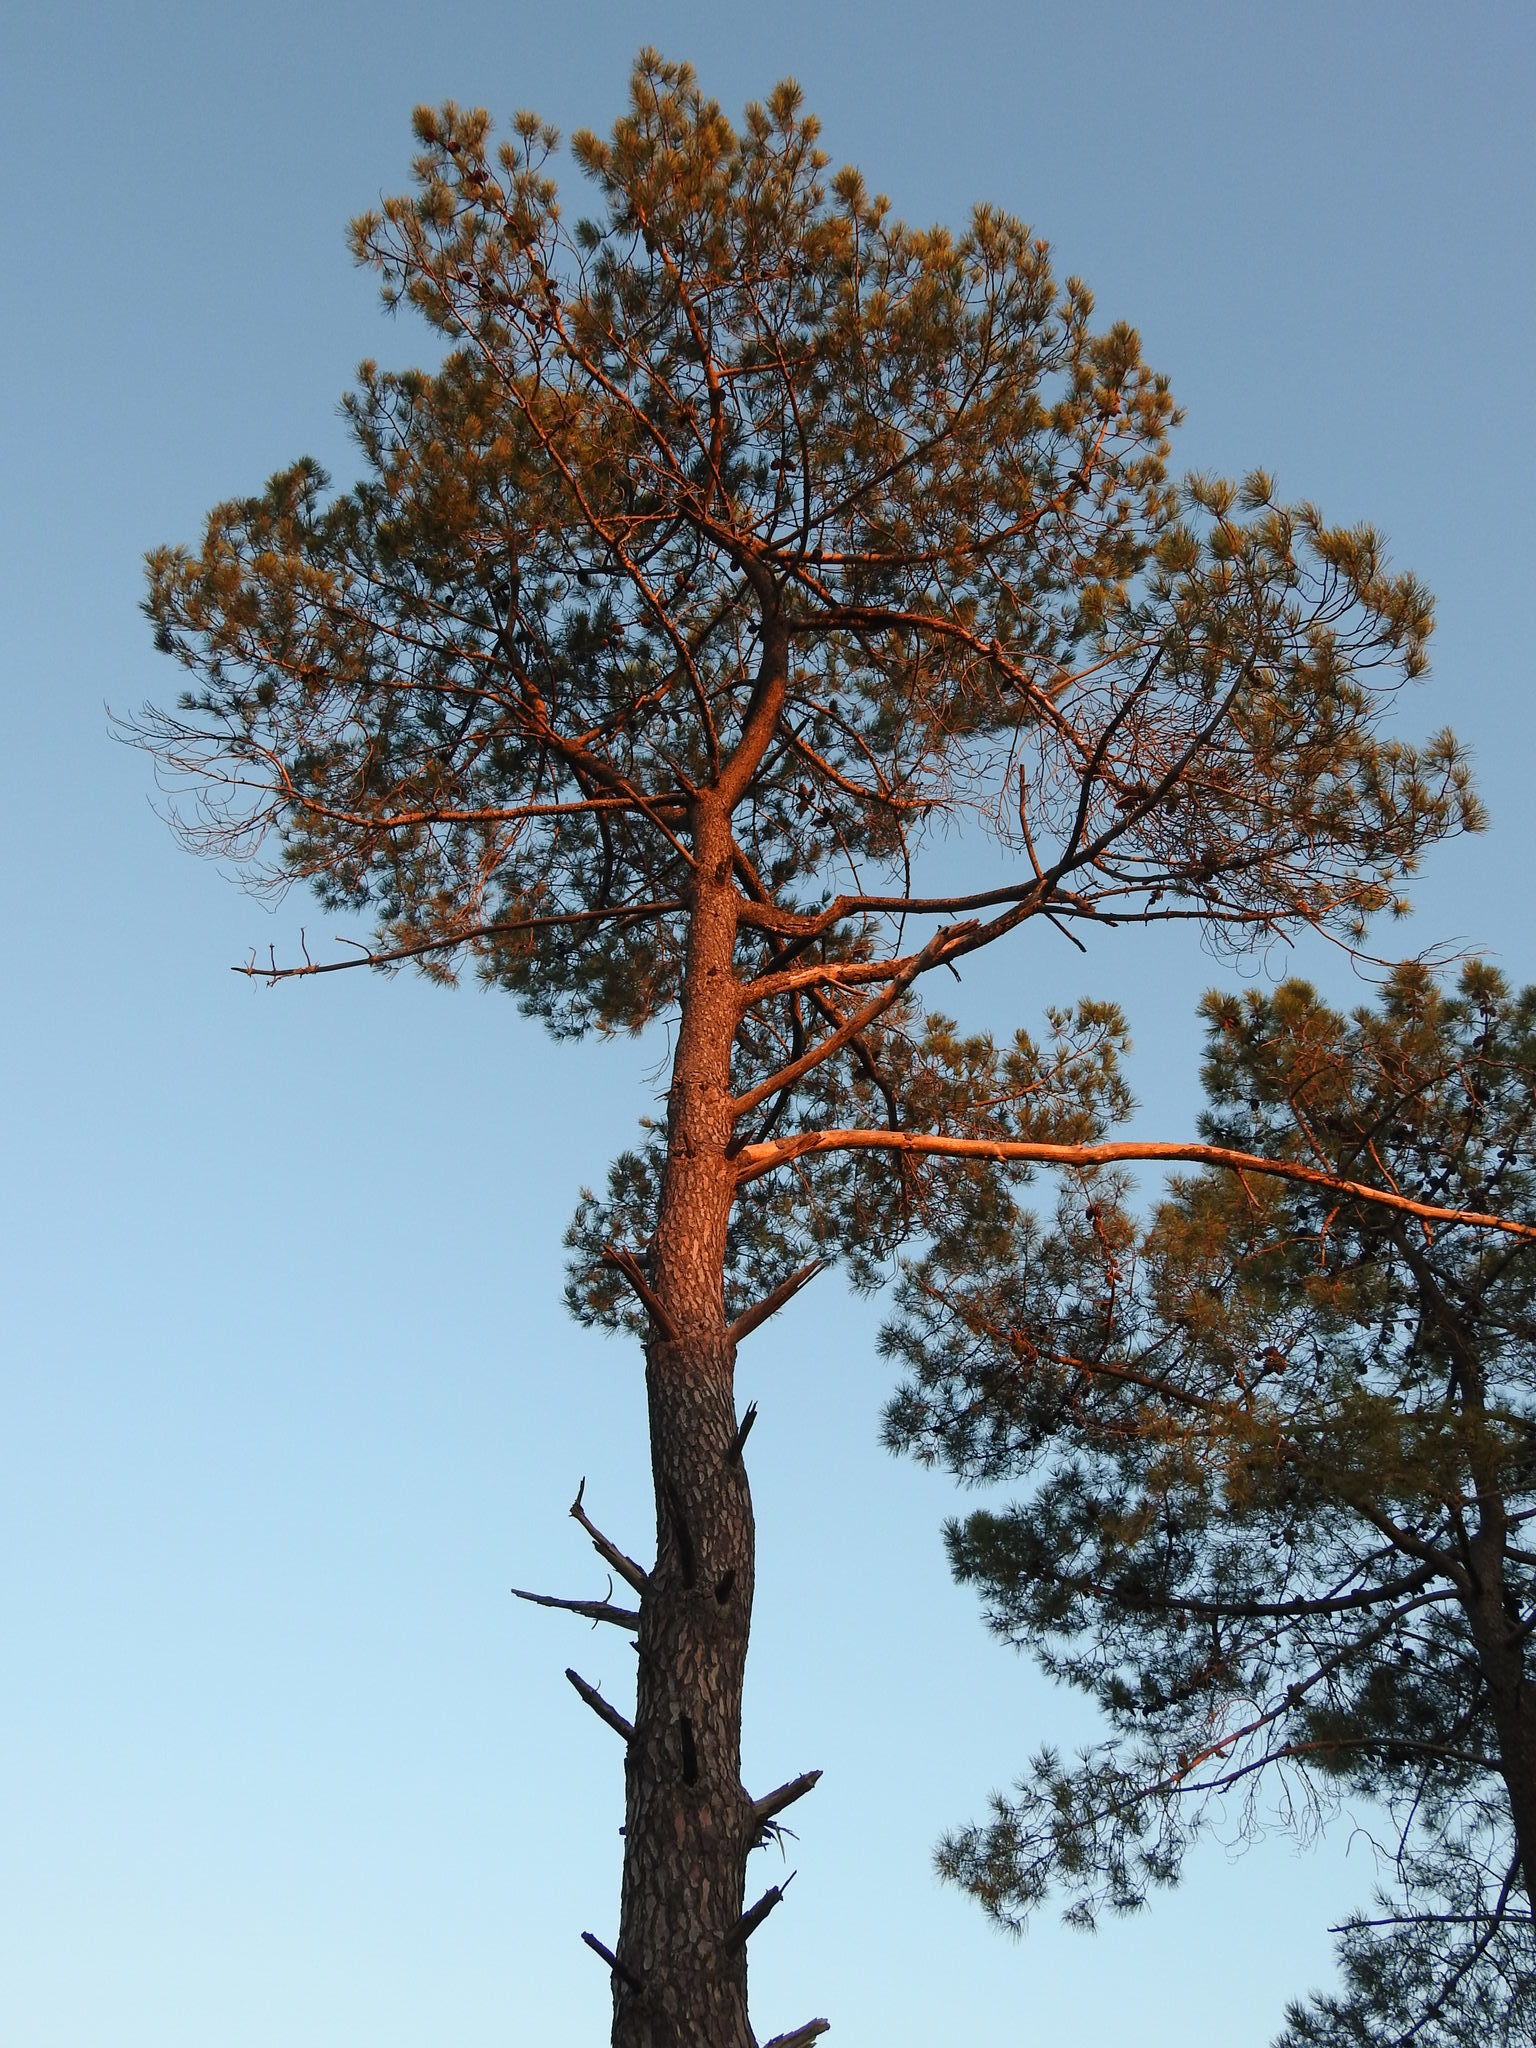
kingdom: Plantae
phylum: Tracheophyta
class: Pinopsida
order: Pinales
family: Pinaceae
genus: Pinus
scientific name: Pinus pinaster
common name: Maritime pine
